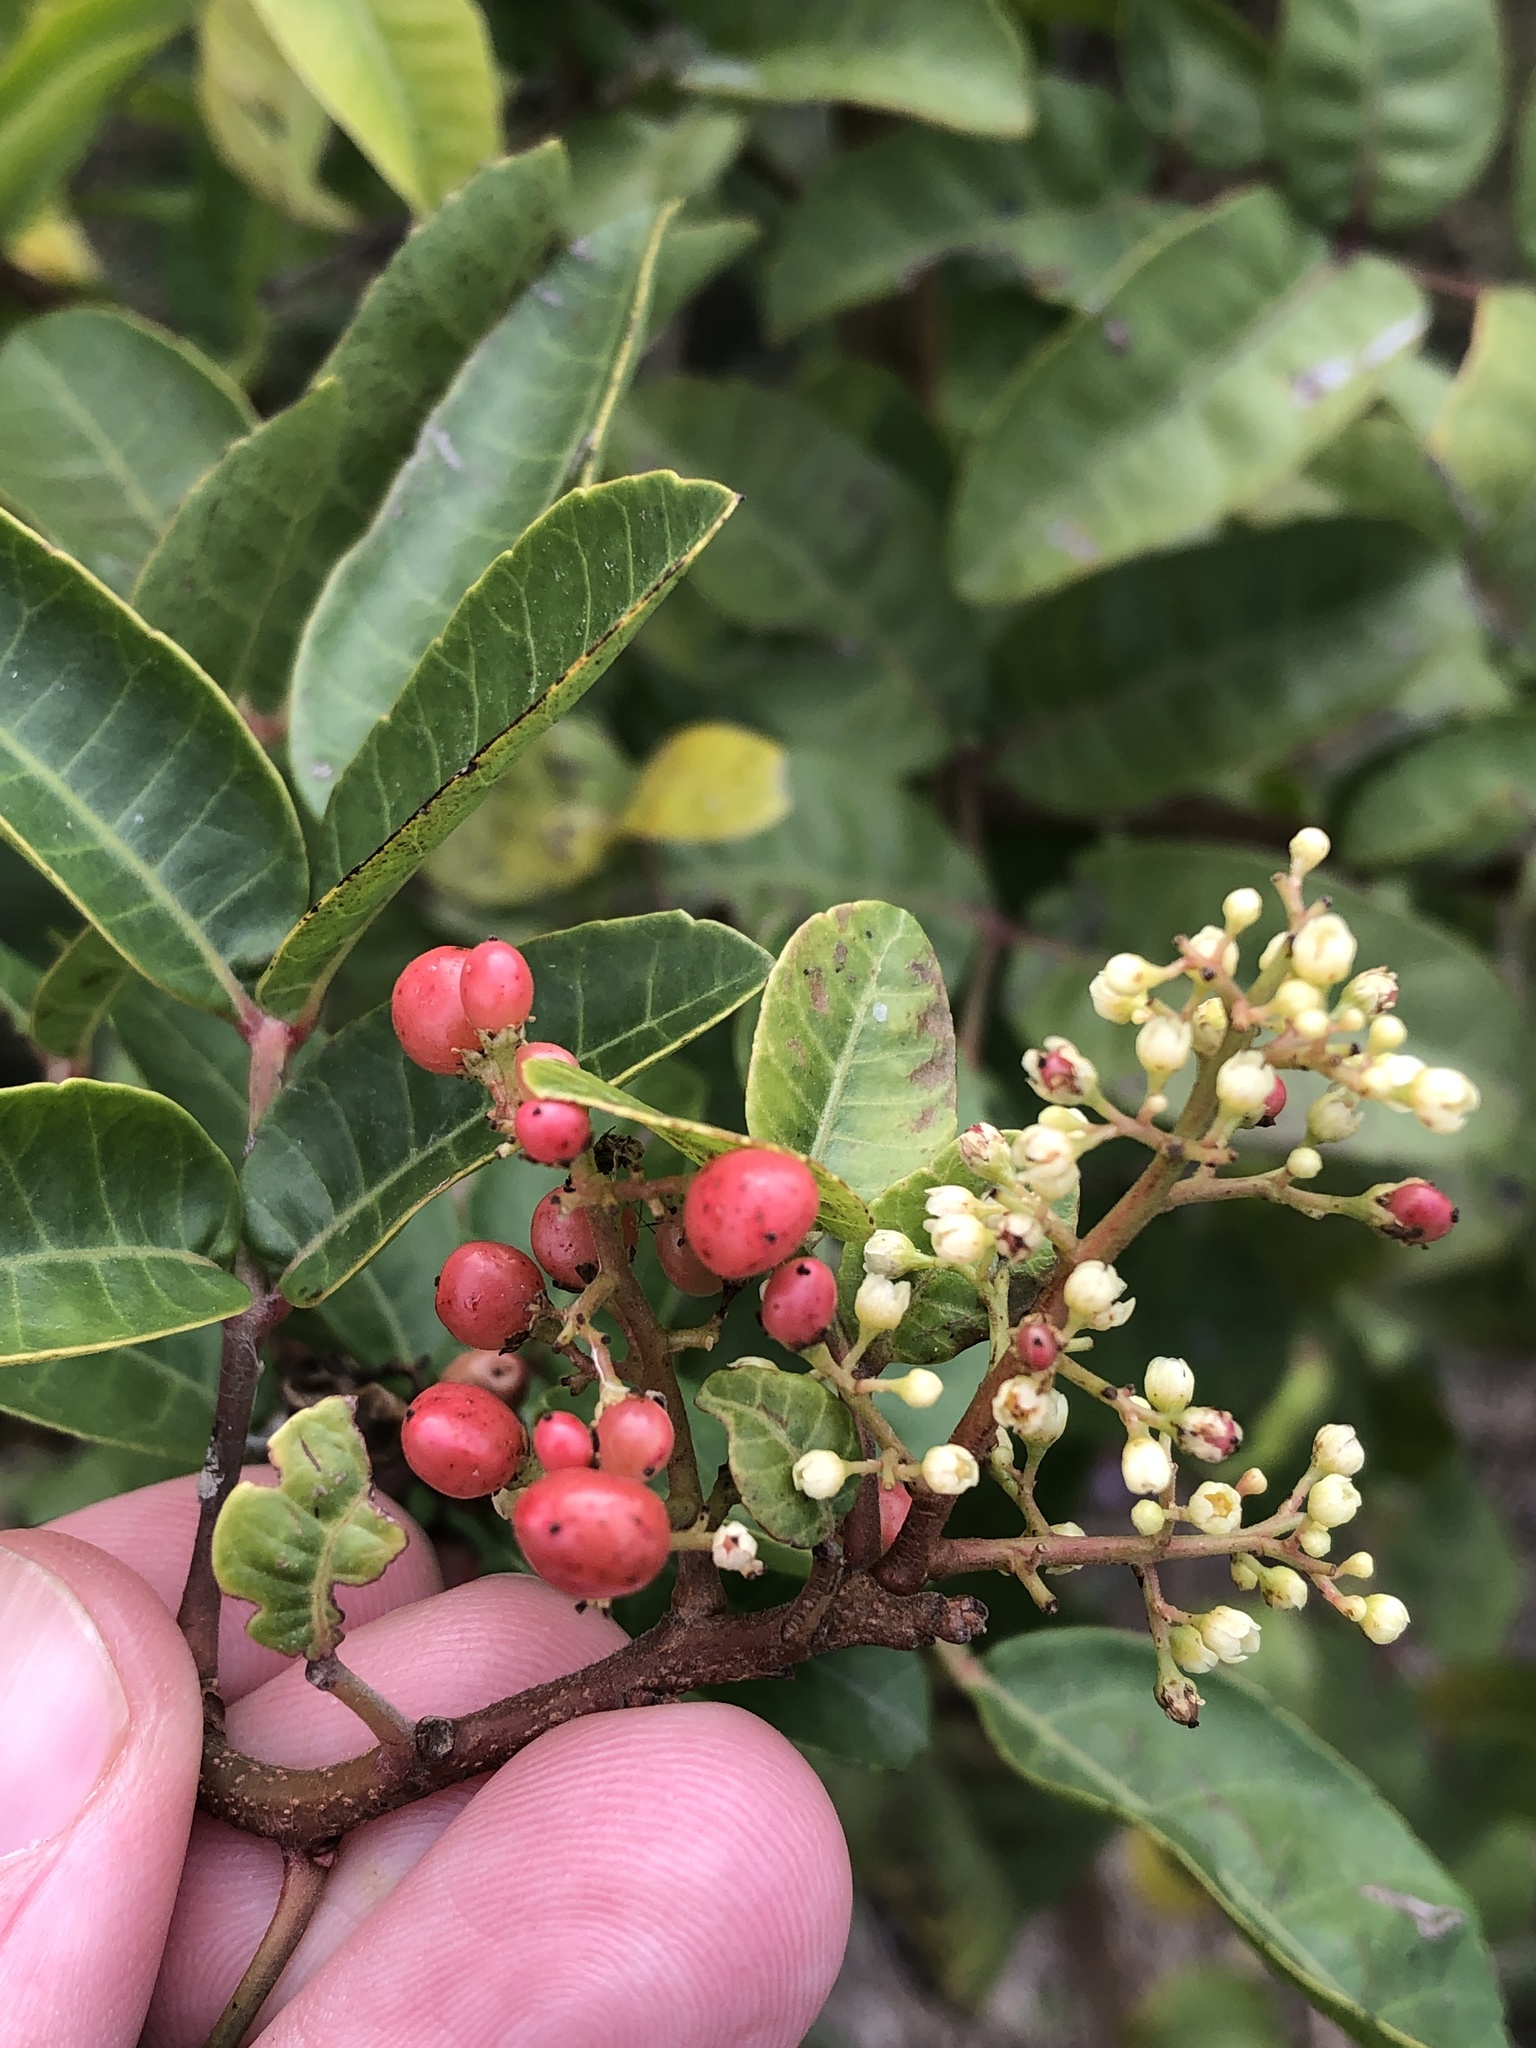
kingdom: Plantae
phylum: Tracheophyta
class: Magnoliopsida
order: Sapindales
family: Anacardiaceae
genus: Schinus
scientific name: Schinus terebinthifolia
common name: Brazilian peppertree
